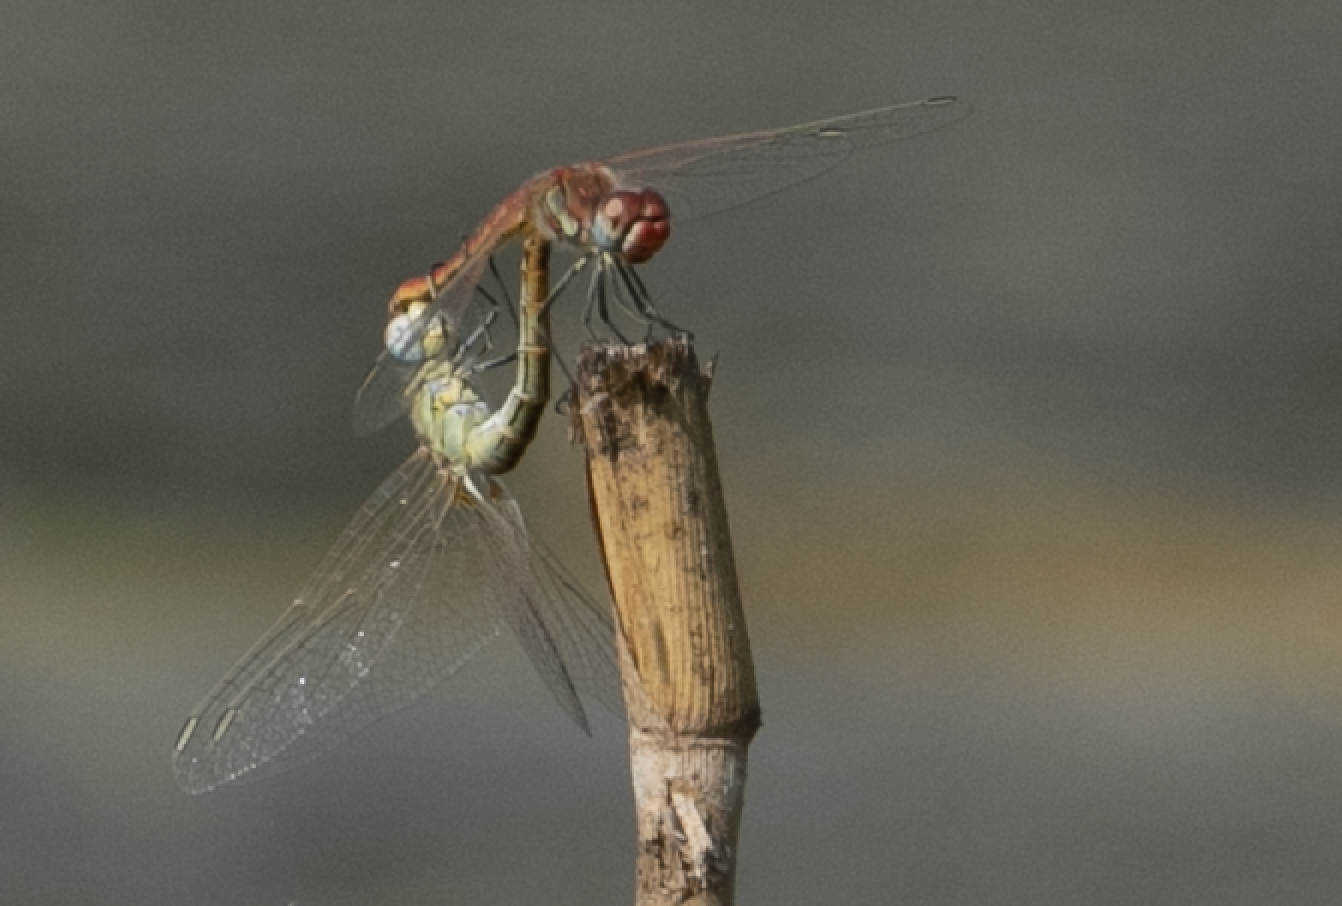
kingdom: Animalia
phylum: Arthropoda
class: Insecta
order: Odonata
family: Libellulidae
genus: Sympetrum
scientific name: Sympetrum fonscolombii
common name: Red-veined darter
